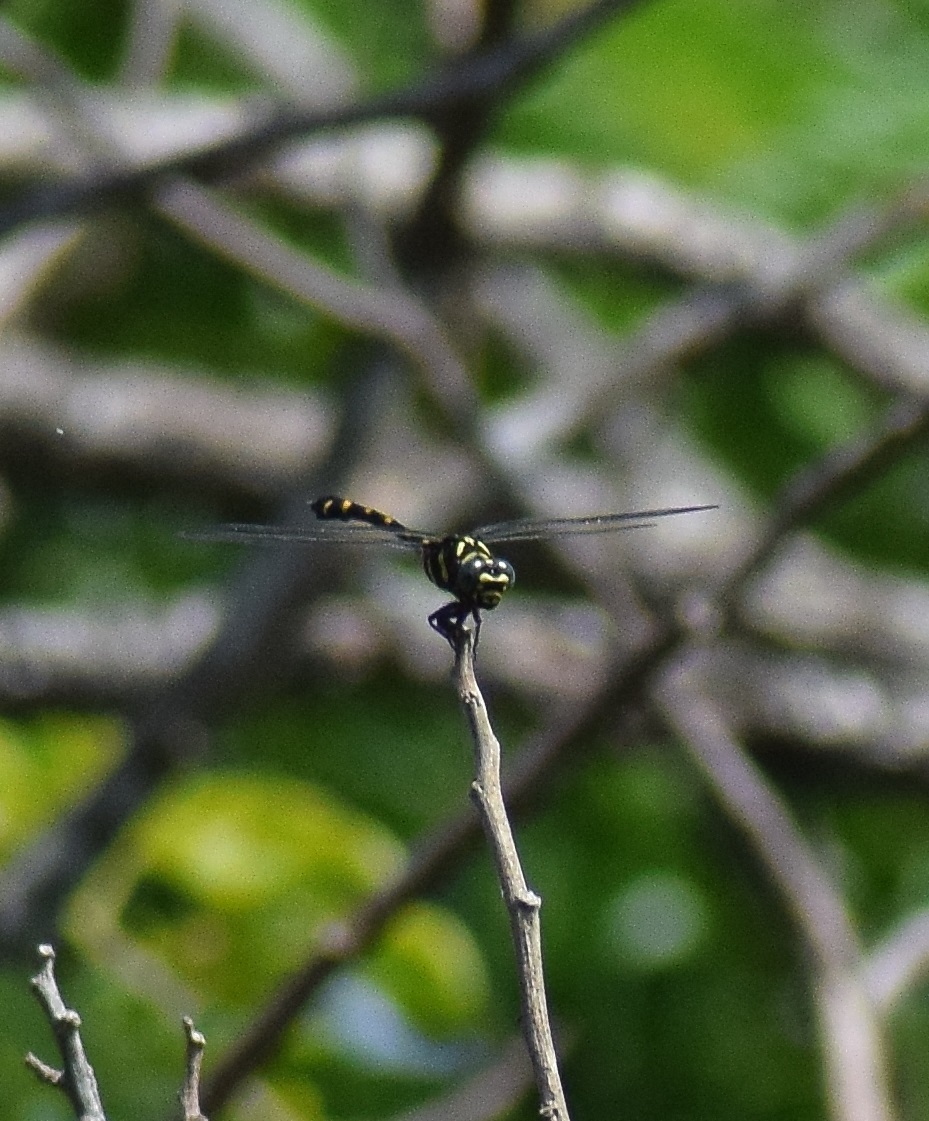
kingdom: Animalia
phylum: Arthropoda
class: Insecta
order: Odonata
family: Gomphidae
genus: Ictinogomphus
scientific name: Ictinogomphus rapax
